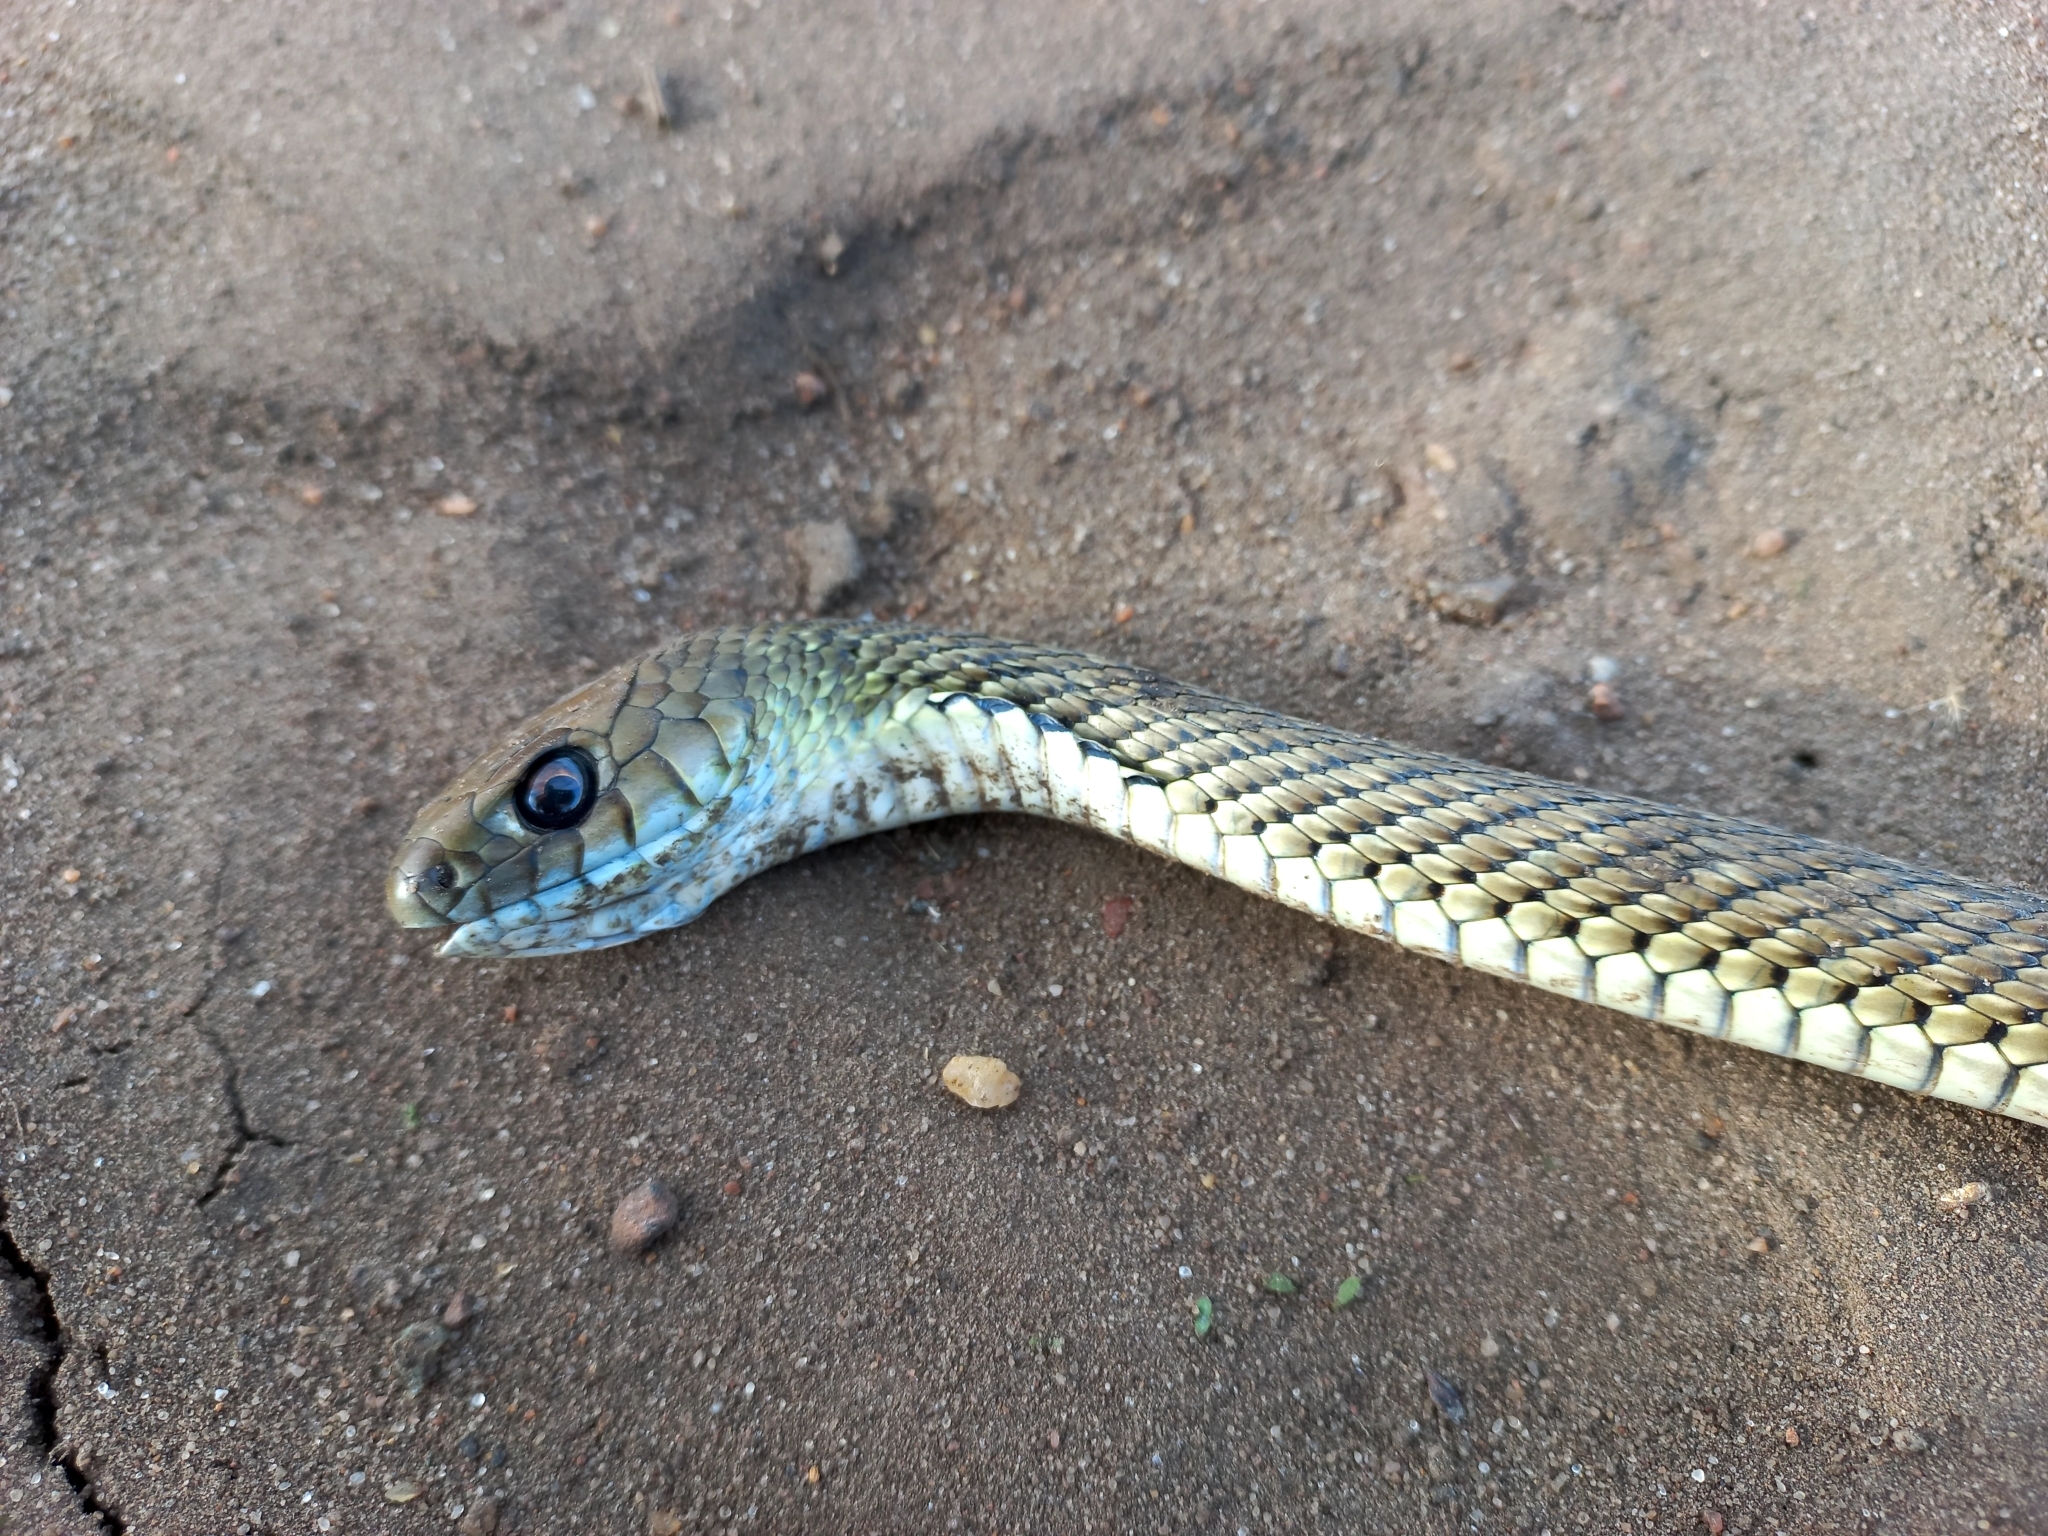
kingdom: Animalia
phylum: Chordata
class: Squamata
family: Colubridae
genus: Philodryas
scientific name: Philodryas patagoniensis
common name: Patagonia green racer
